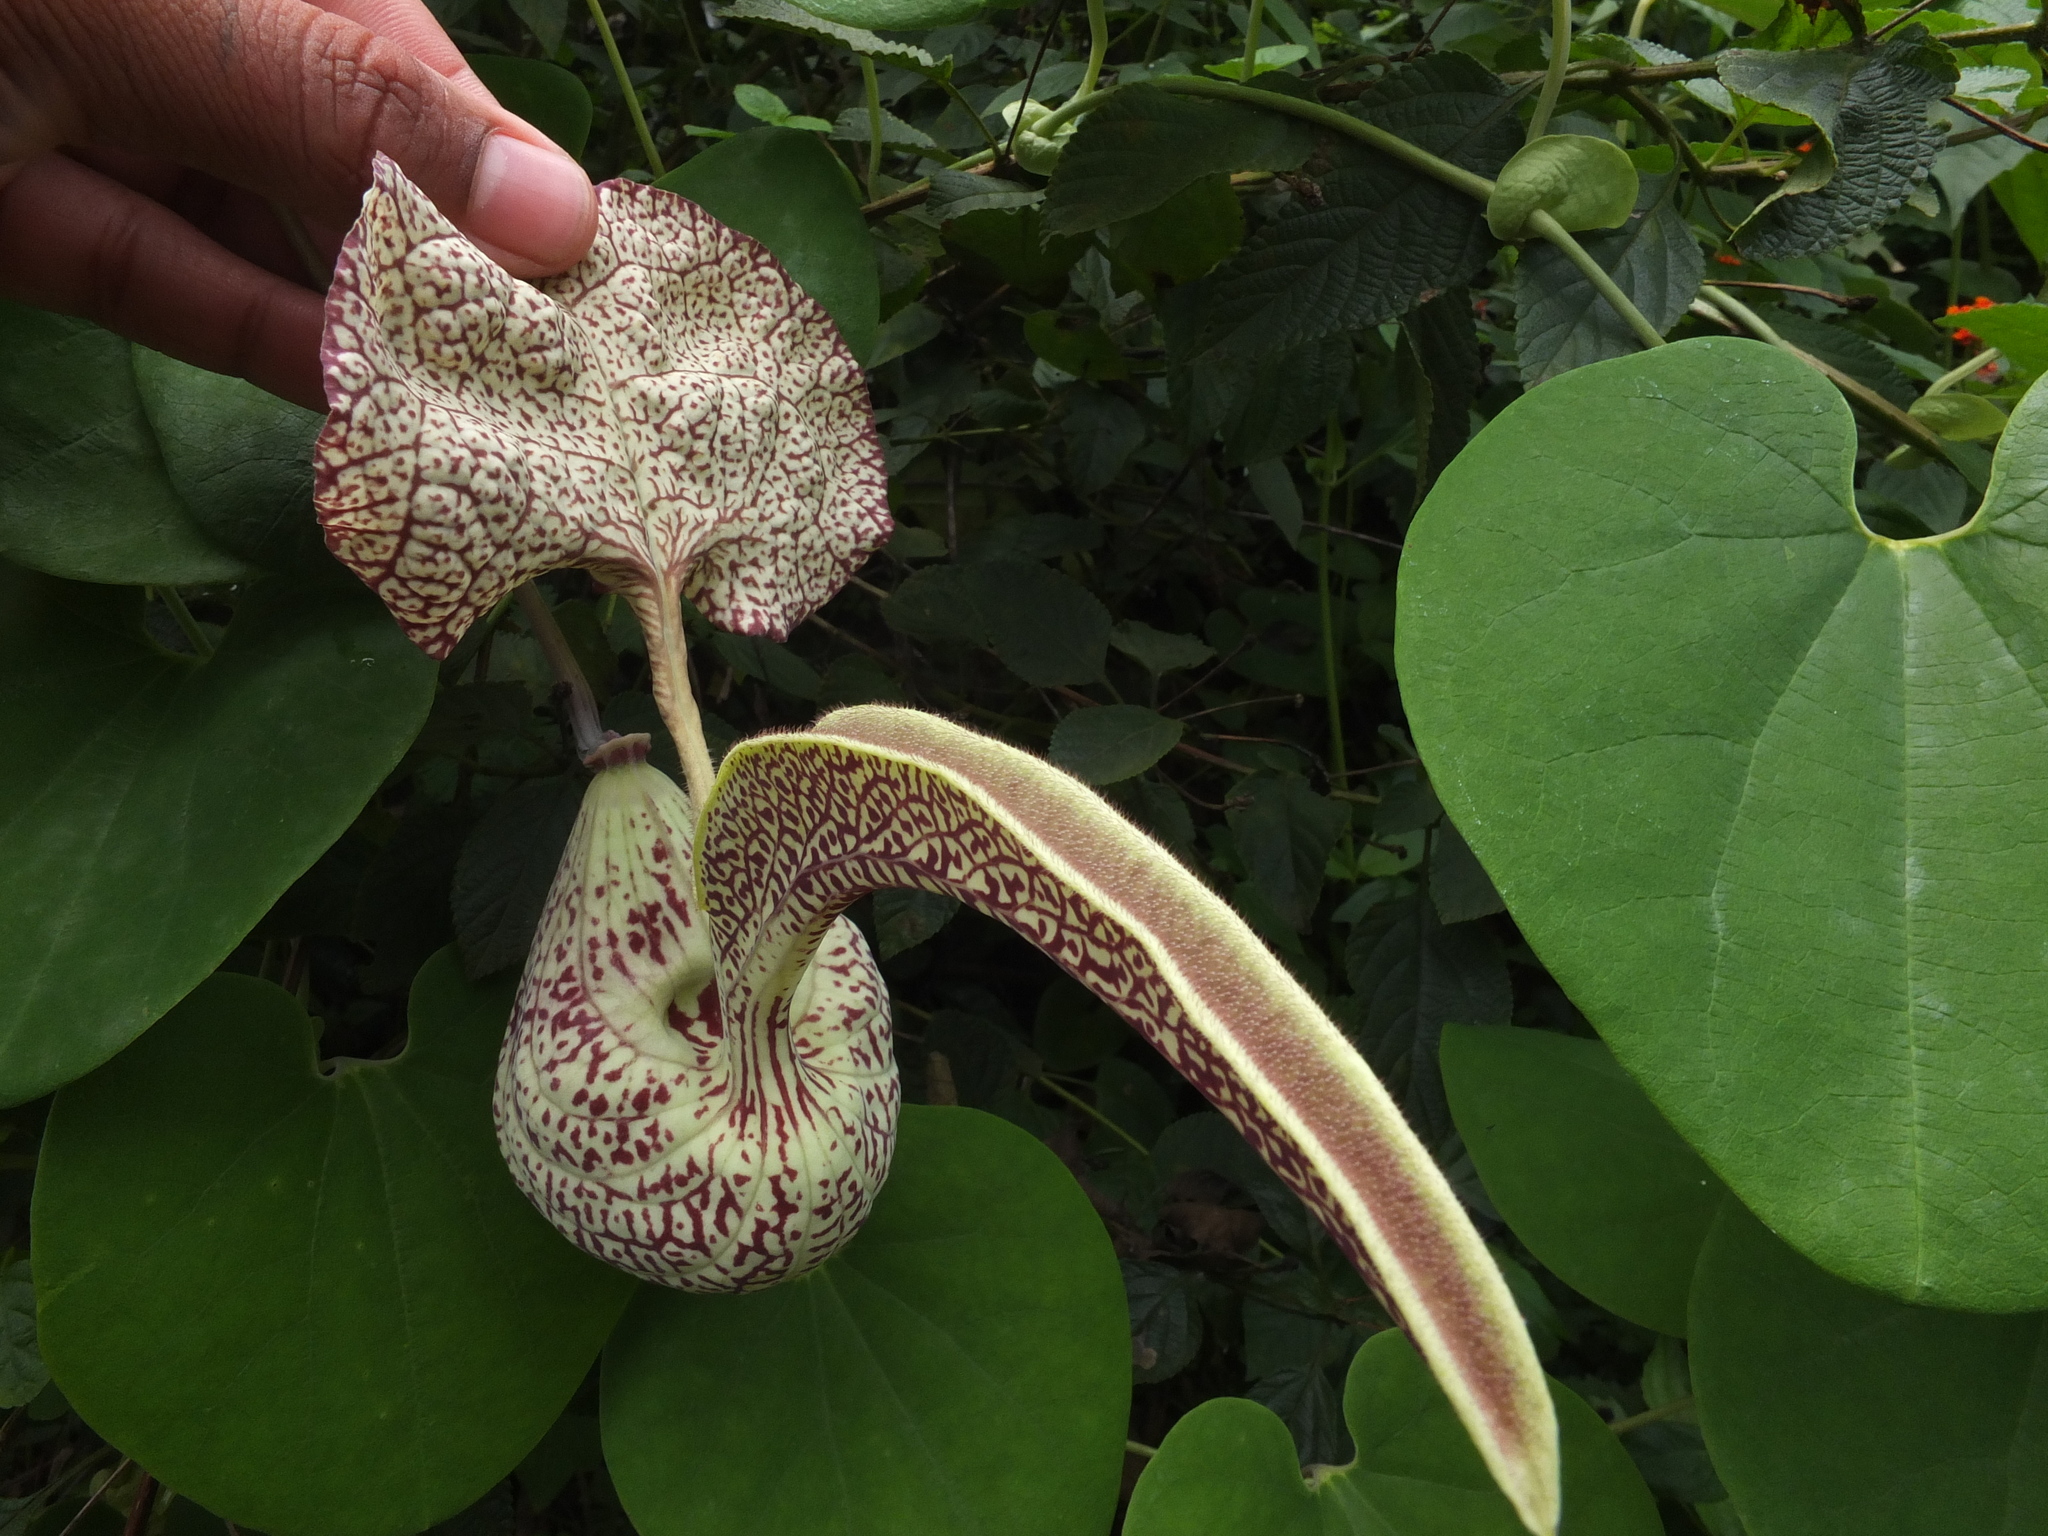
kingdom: Plantae
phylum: Tracheophyta
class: Magnoliopsida
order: Piperales
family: Aristolochiaceae
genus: Aristolochia
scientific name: Aristolochia labiata
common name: Mottled dutchman's pipe
